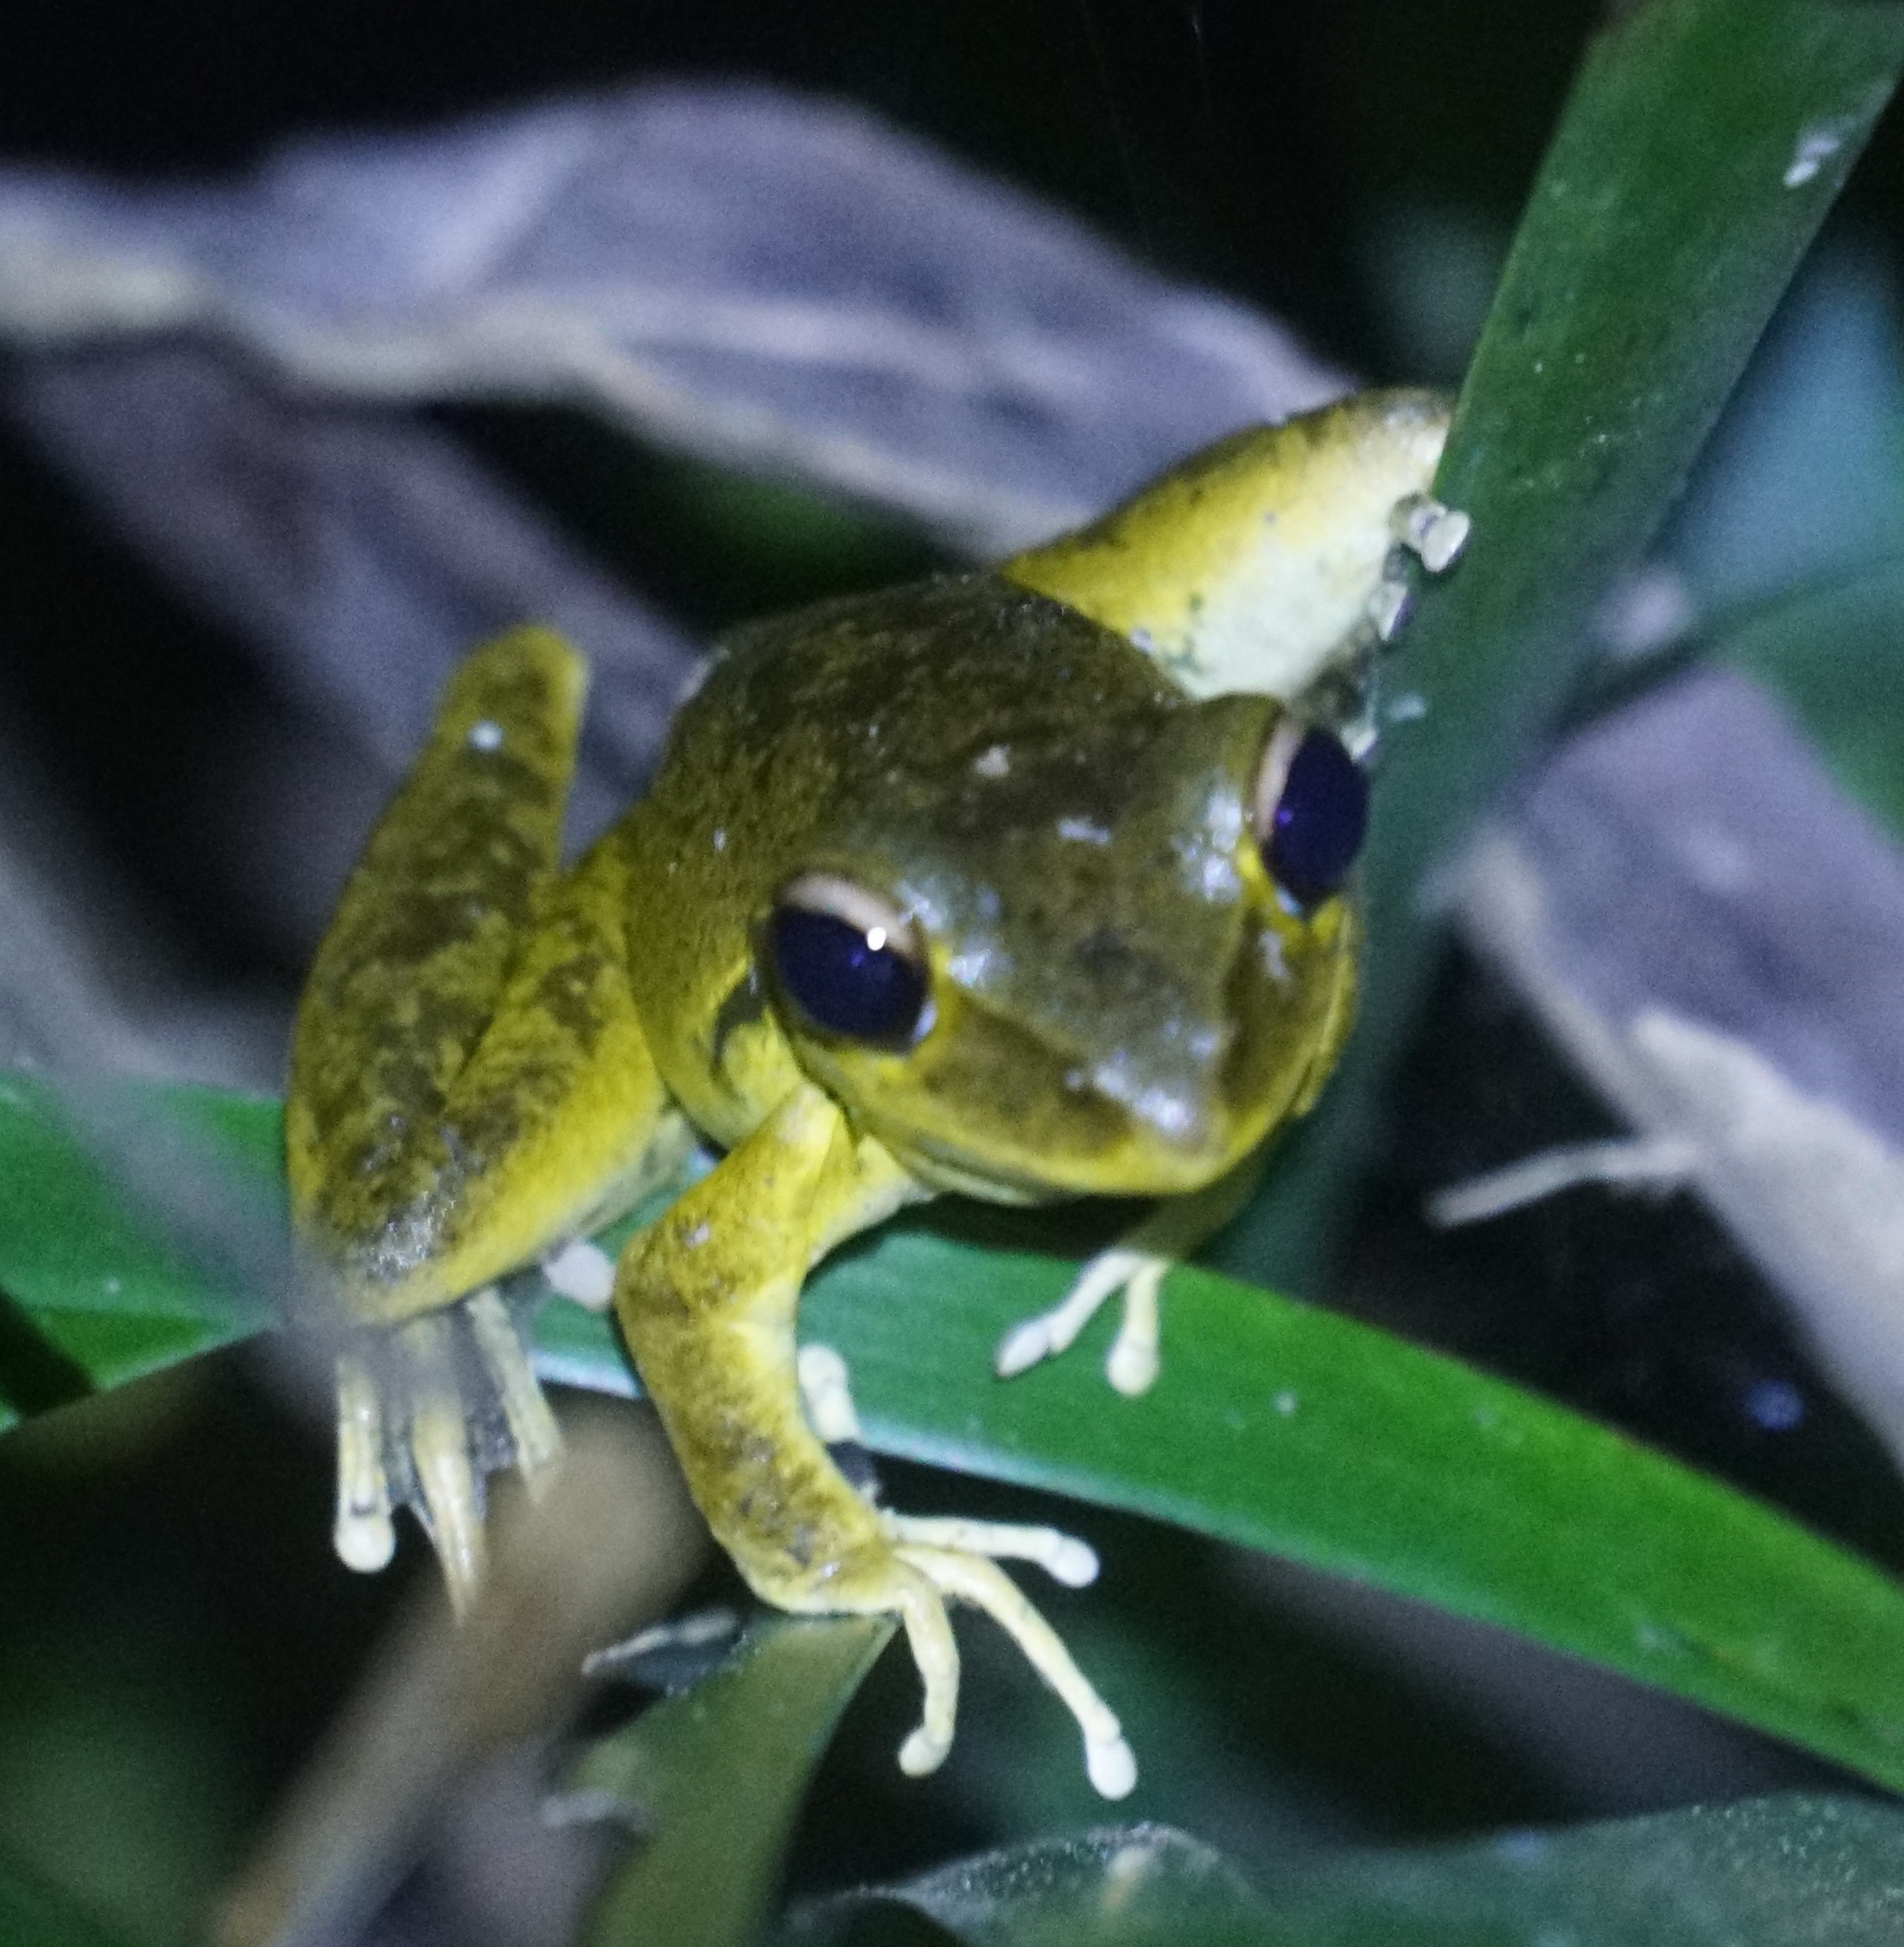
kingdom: Animalia
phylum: Chordata
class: Amphibia
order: Anura
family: Hylidae
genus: Ranoidea
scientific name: Ranoidea
